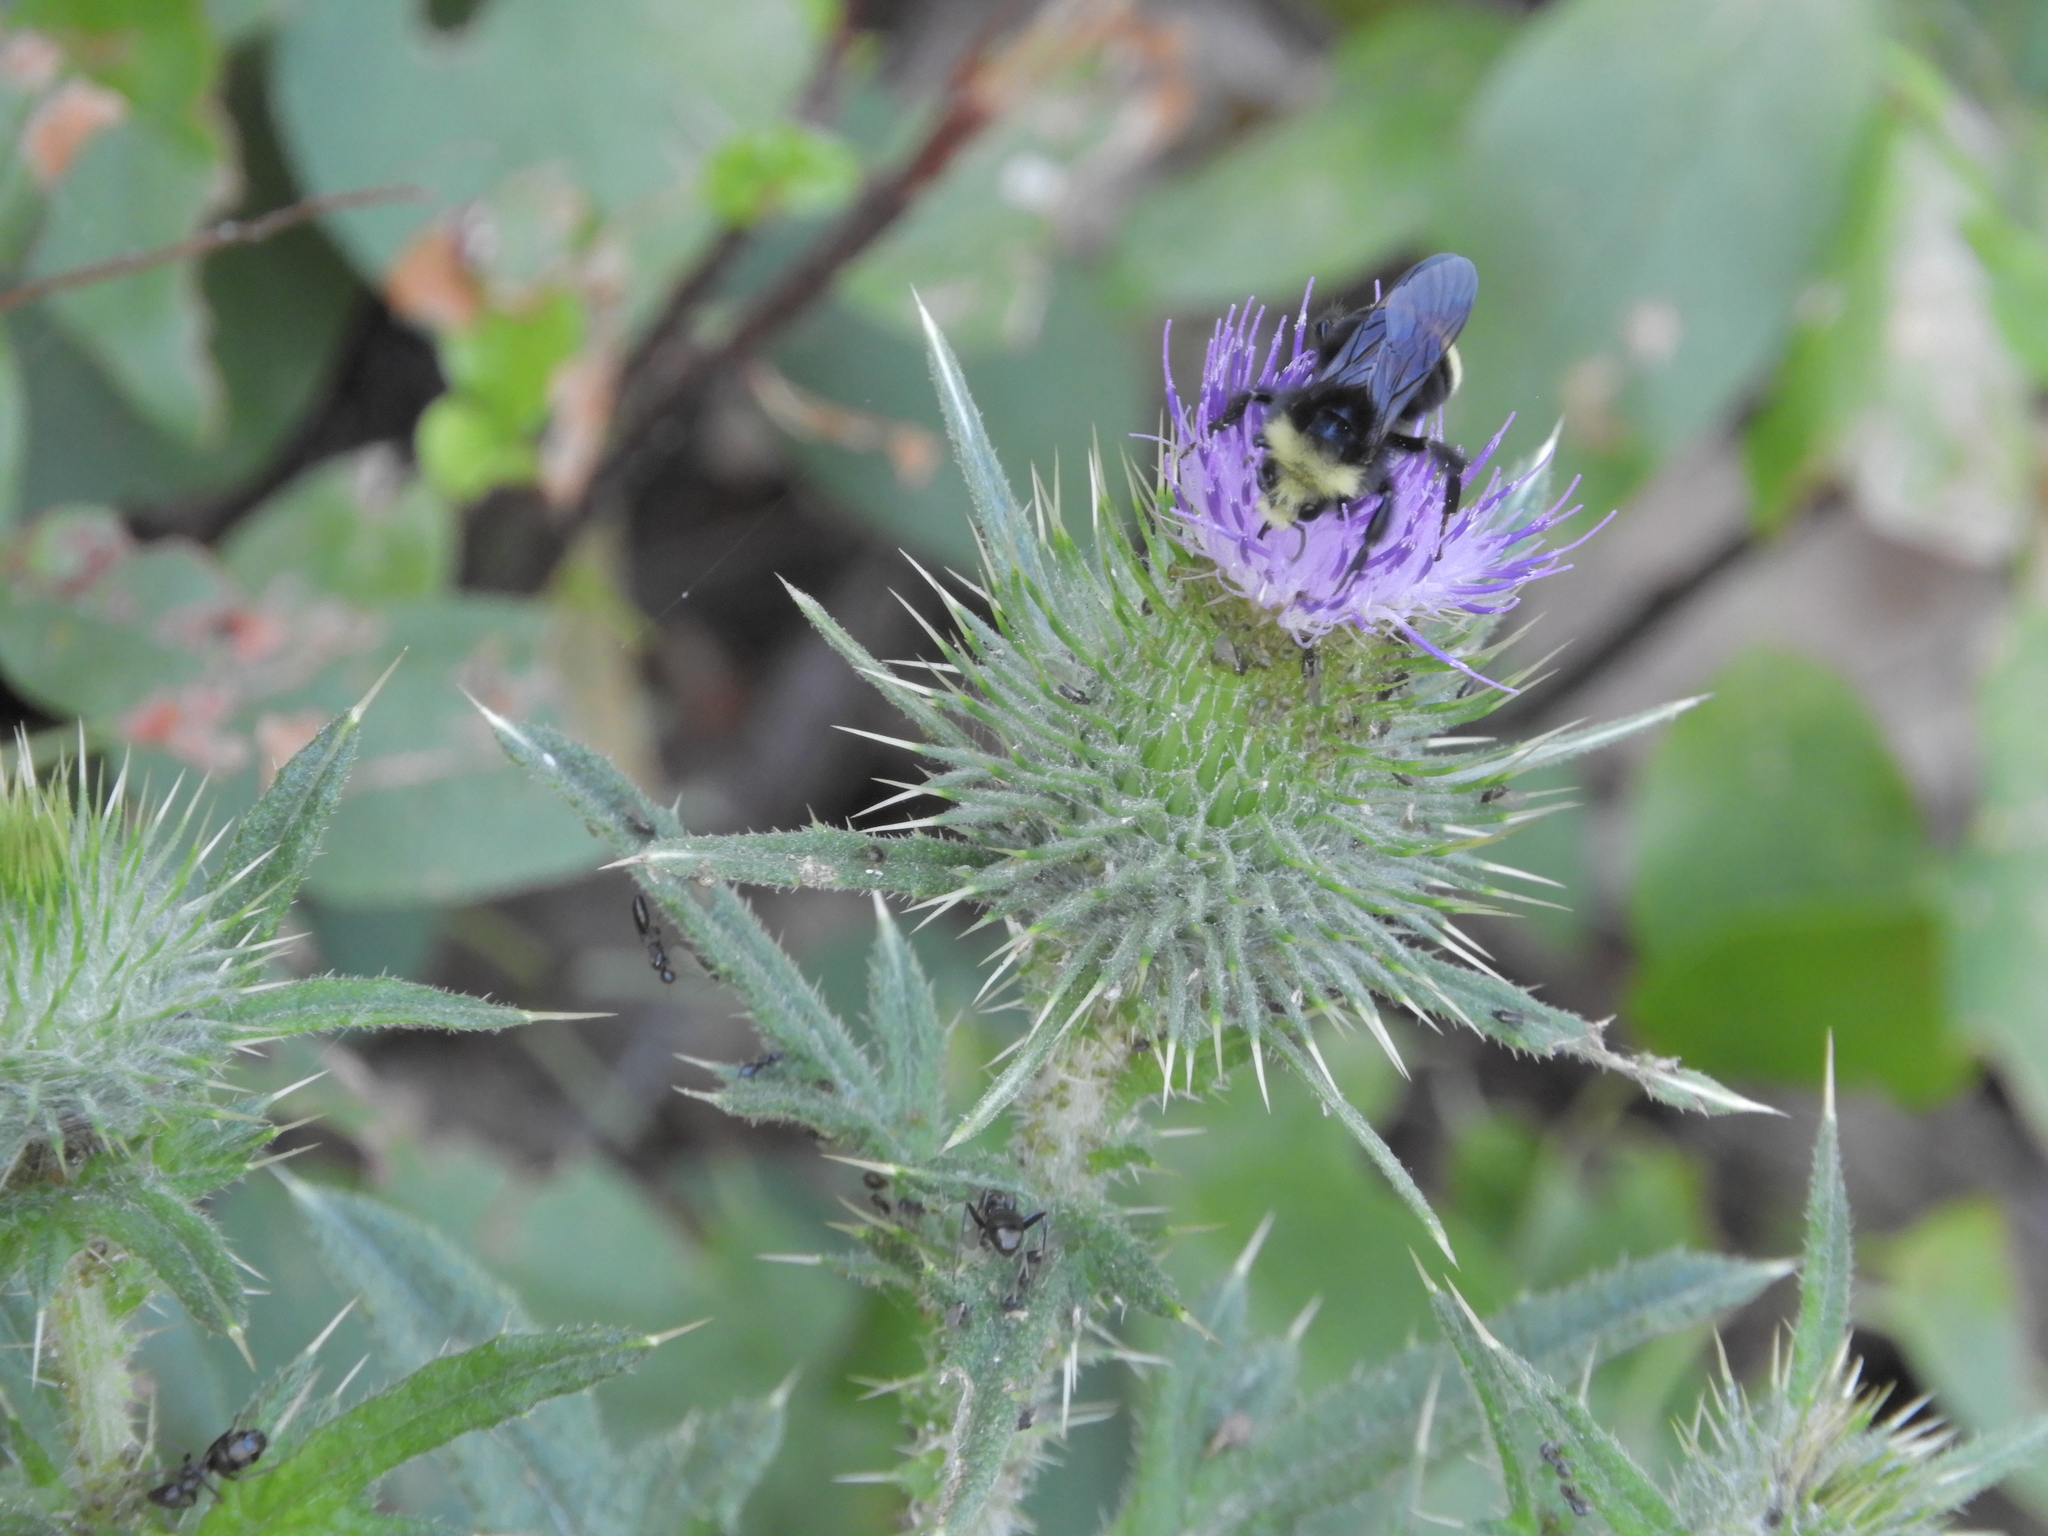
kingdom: Plantae
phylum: Tracheophyta
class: Magnoliopsida
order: Asterales
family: Asteraceae
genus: Cirsium
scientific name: Cirsium vulgare
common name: Bull thistle
